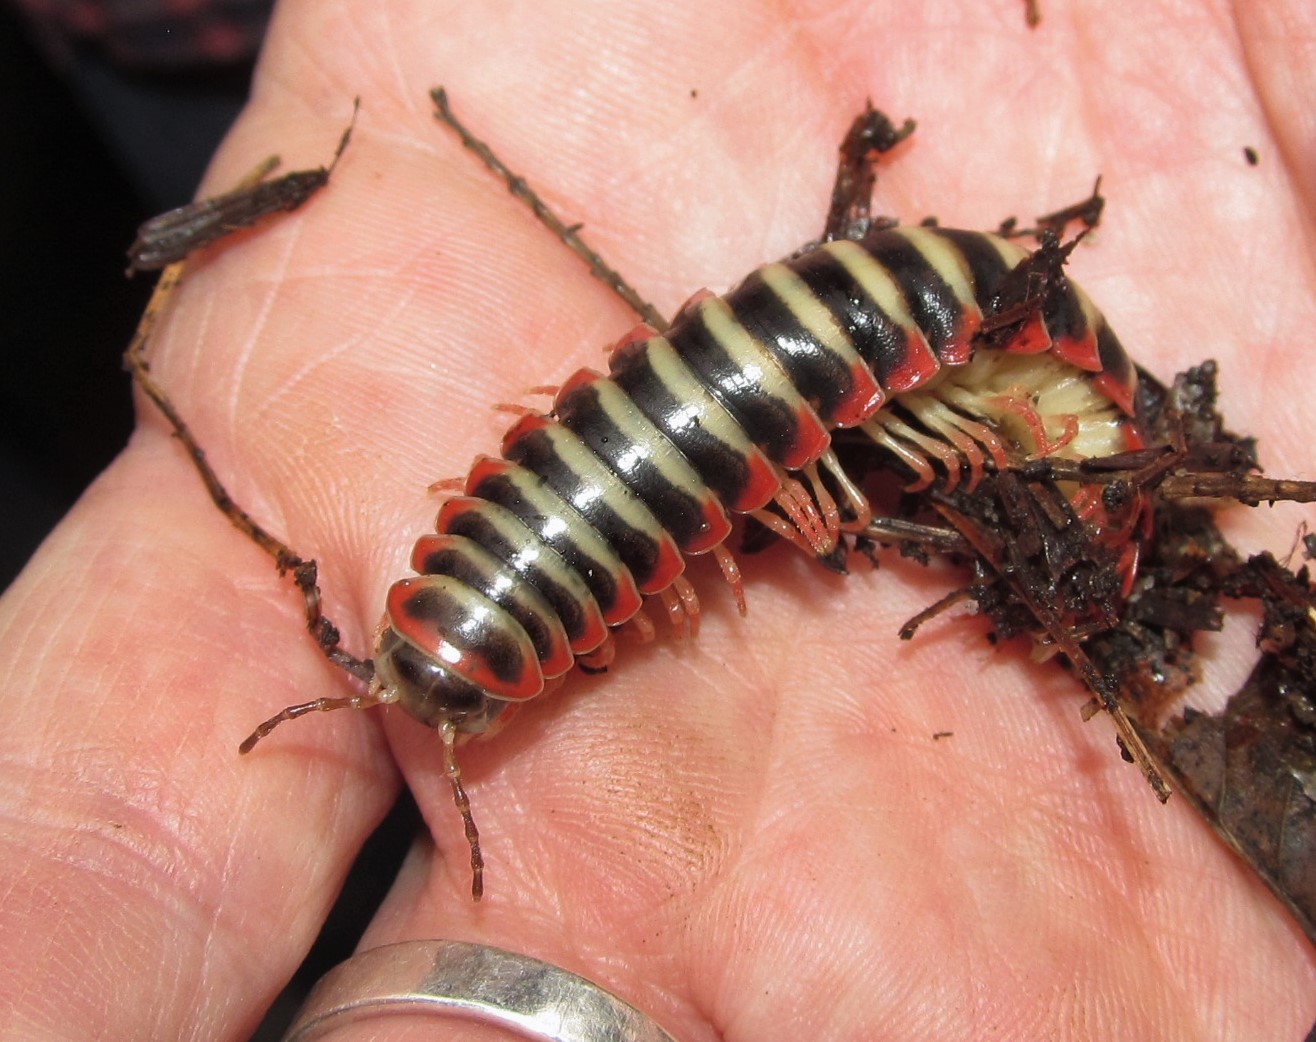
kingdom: Animalia
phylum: Arthropoda
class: Diplopoda
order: Polydesmida
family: Xystodesmidae
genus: Sigmoria
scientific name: Sigmoria nantahalae
